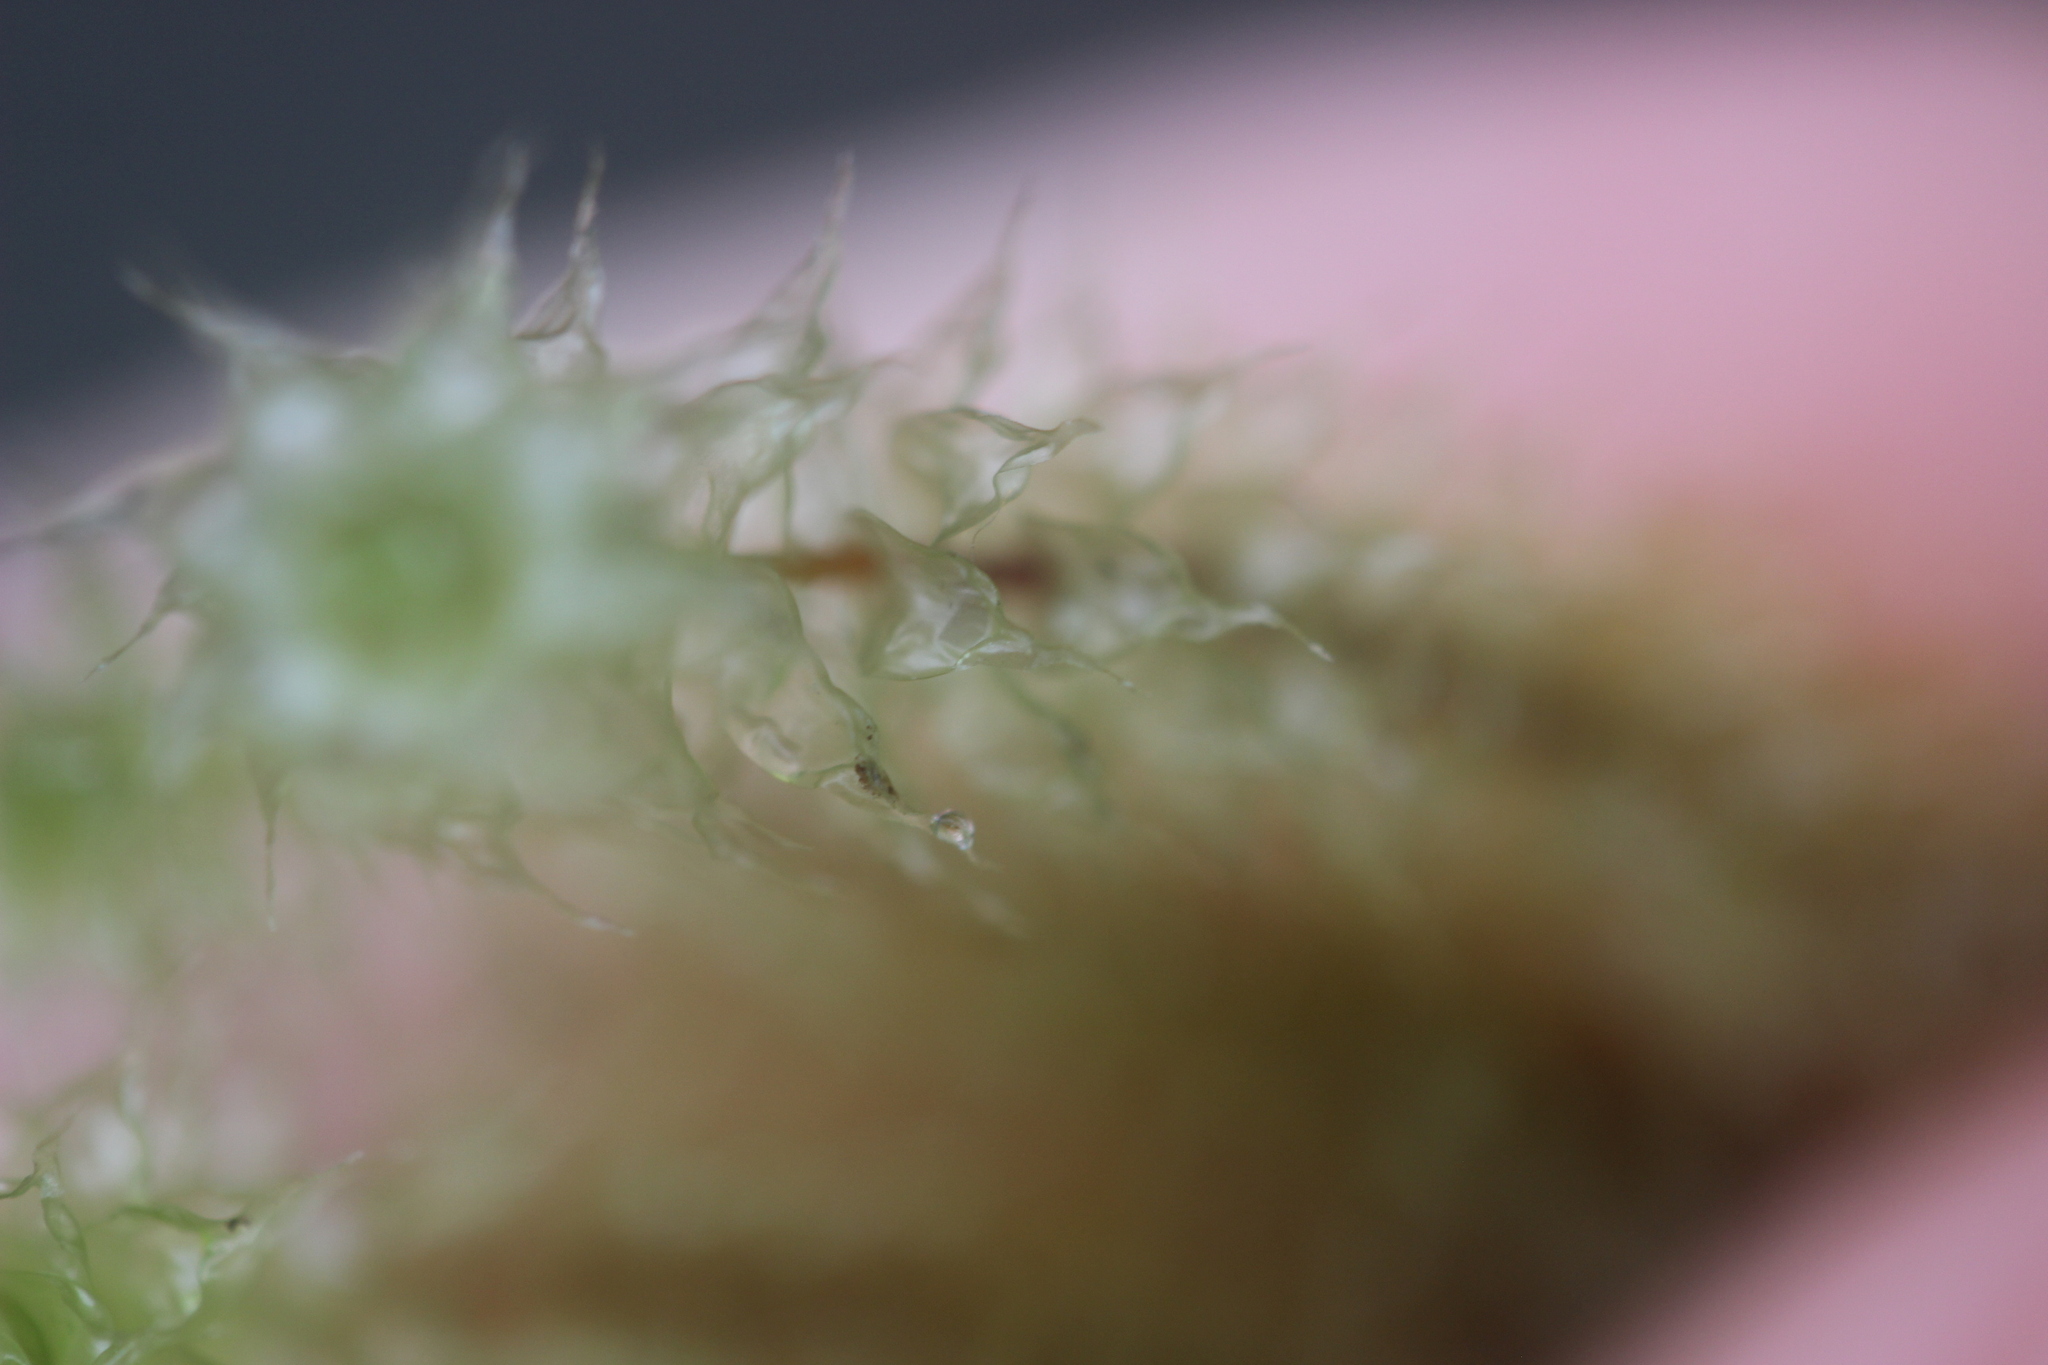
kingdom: Plantae
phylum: Bryophyta
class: Bryopsida
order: Ptychomniales
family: Ptychomniaceae
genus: Ptychomnion
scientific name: Ptychomnion aciculare
